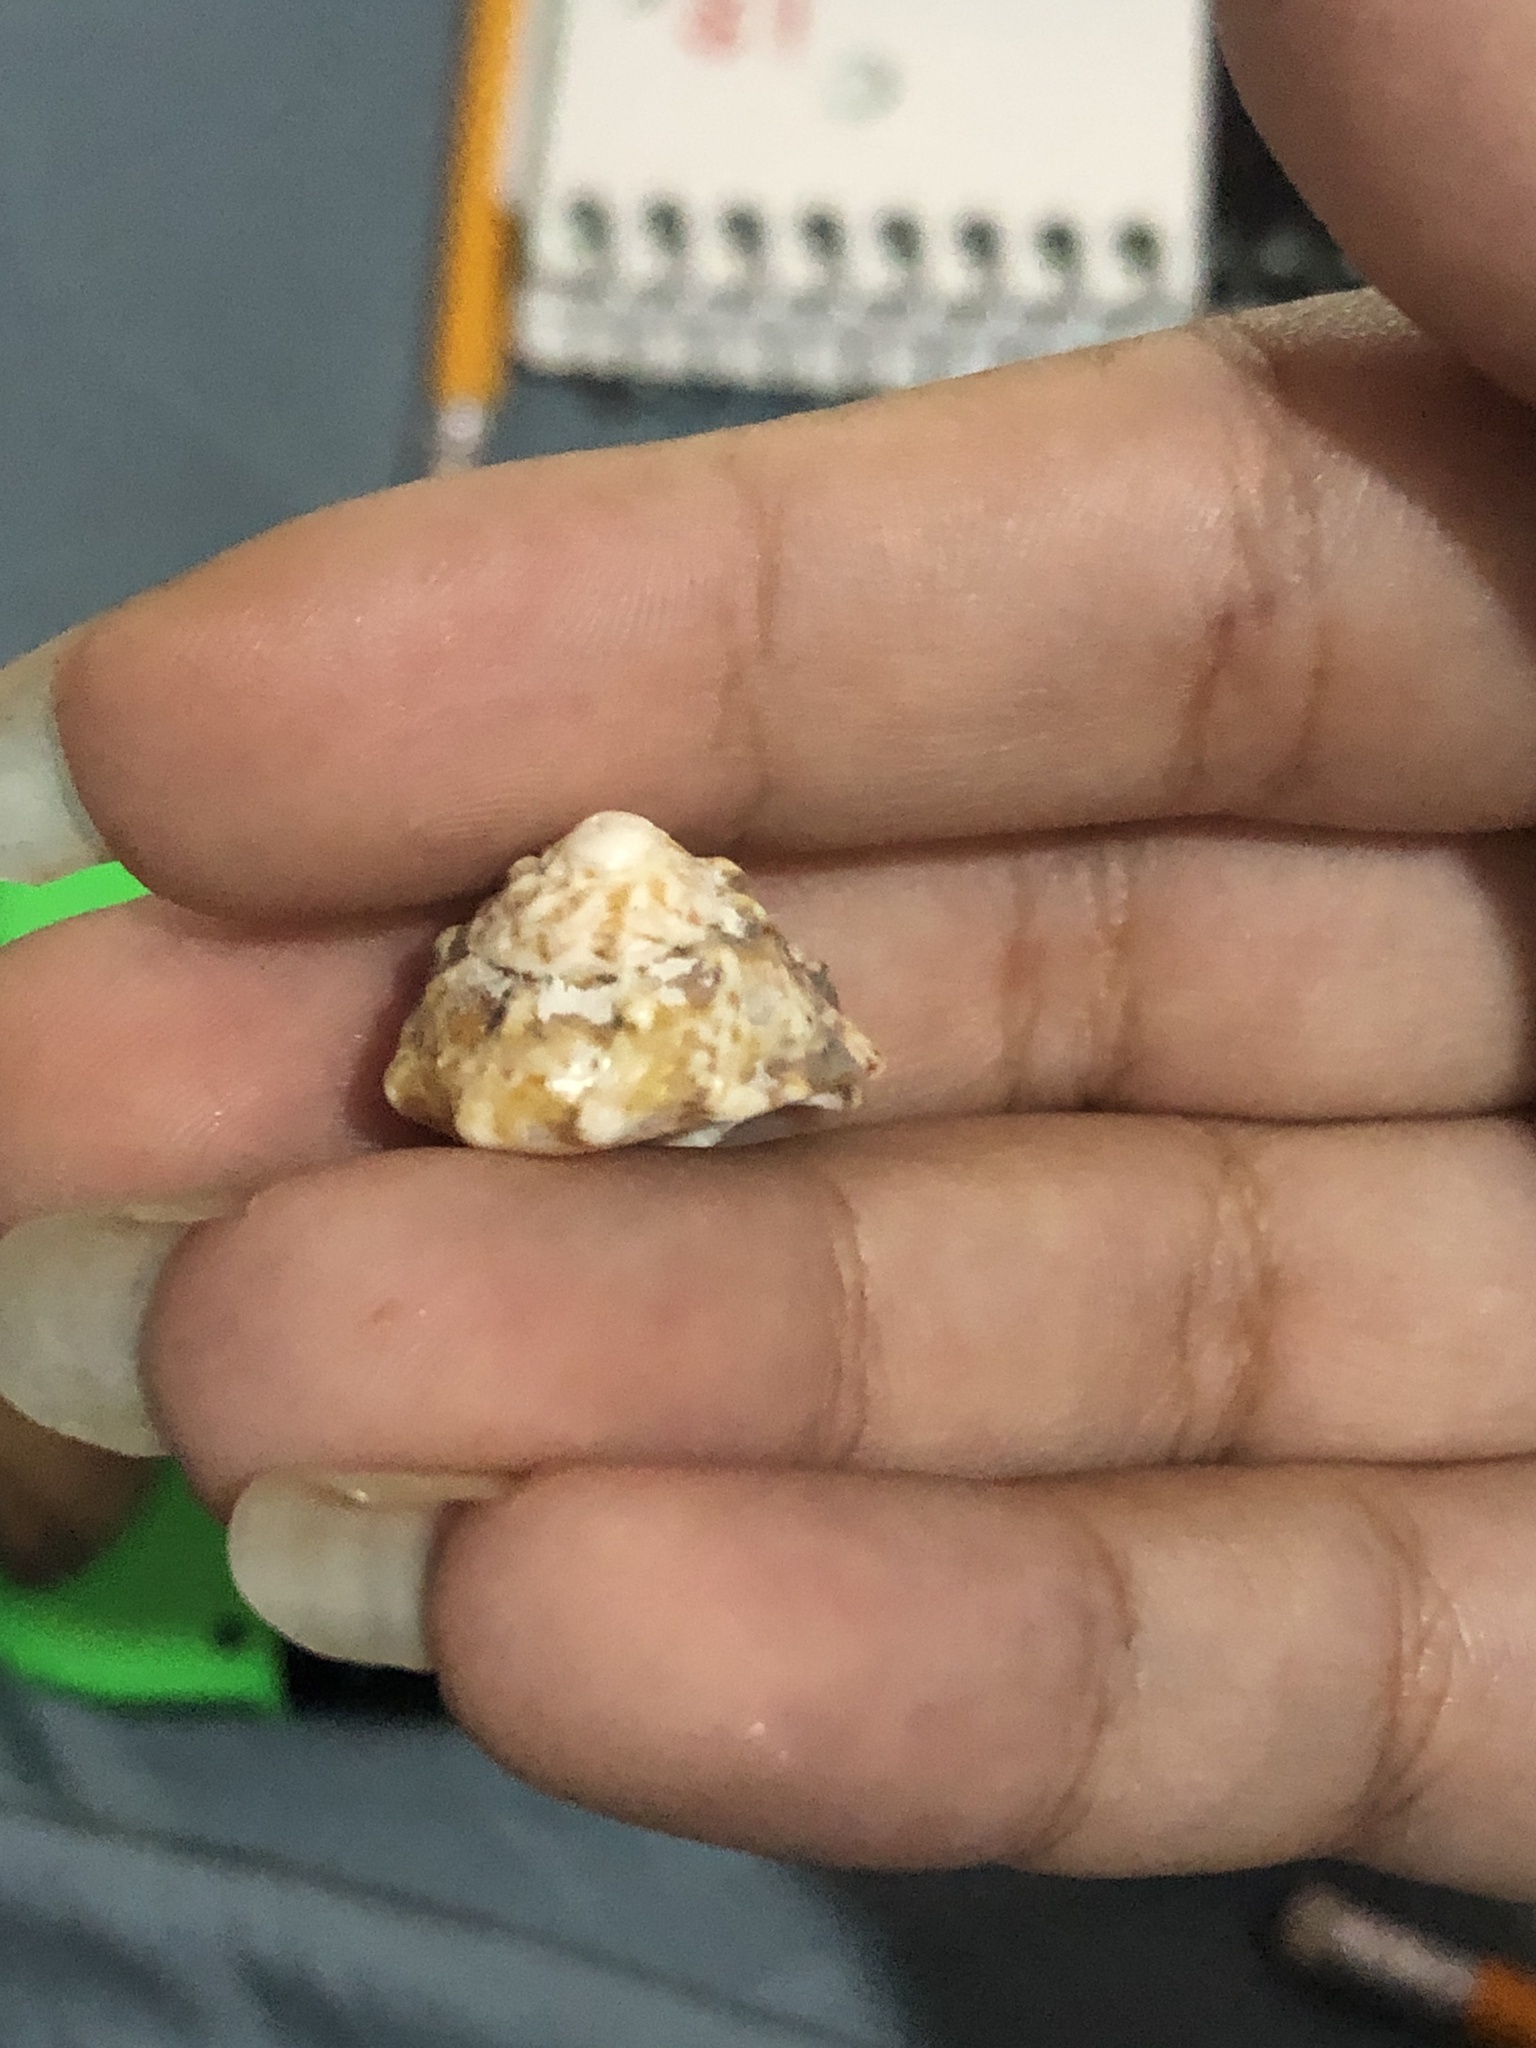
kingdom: Animalia
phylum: Mollusca
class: Gastropoda
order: Trochida
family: Turbinidae
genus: Lithopoma
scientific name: Lithopoma tuber
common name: Green starsnail
